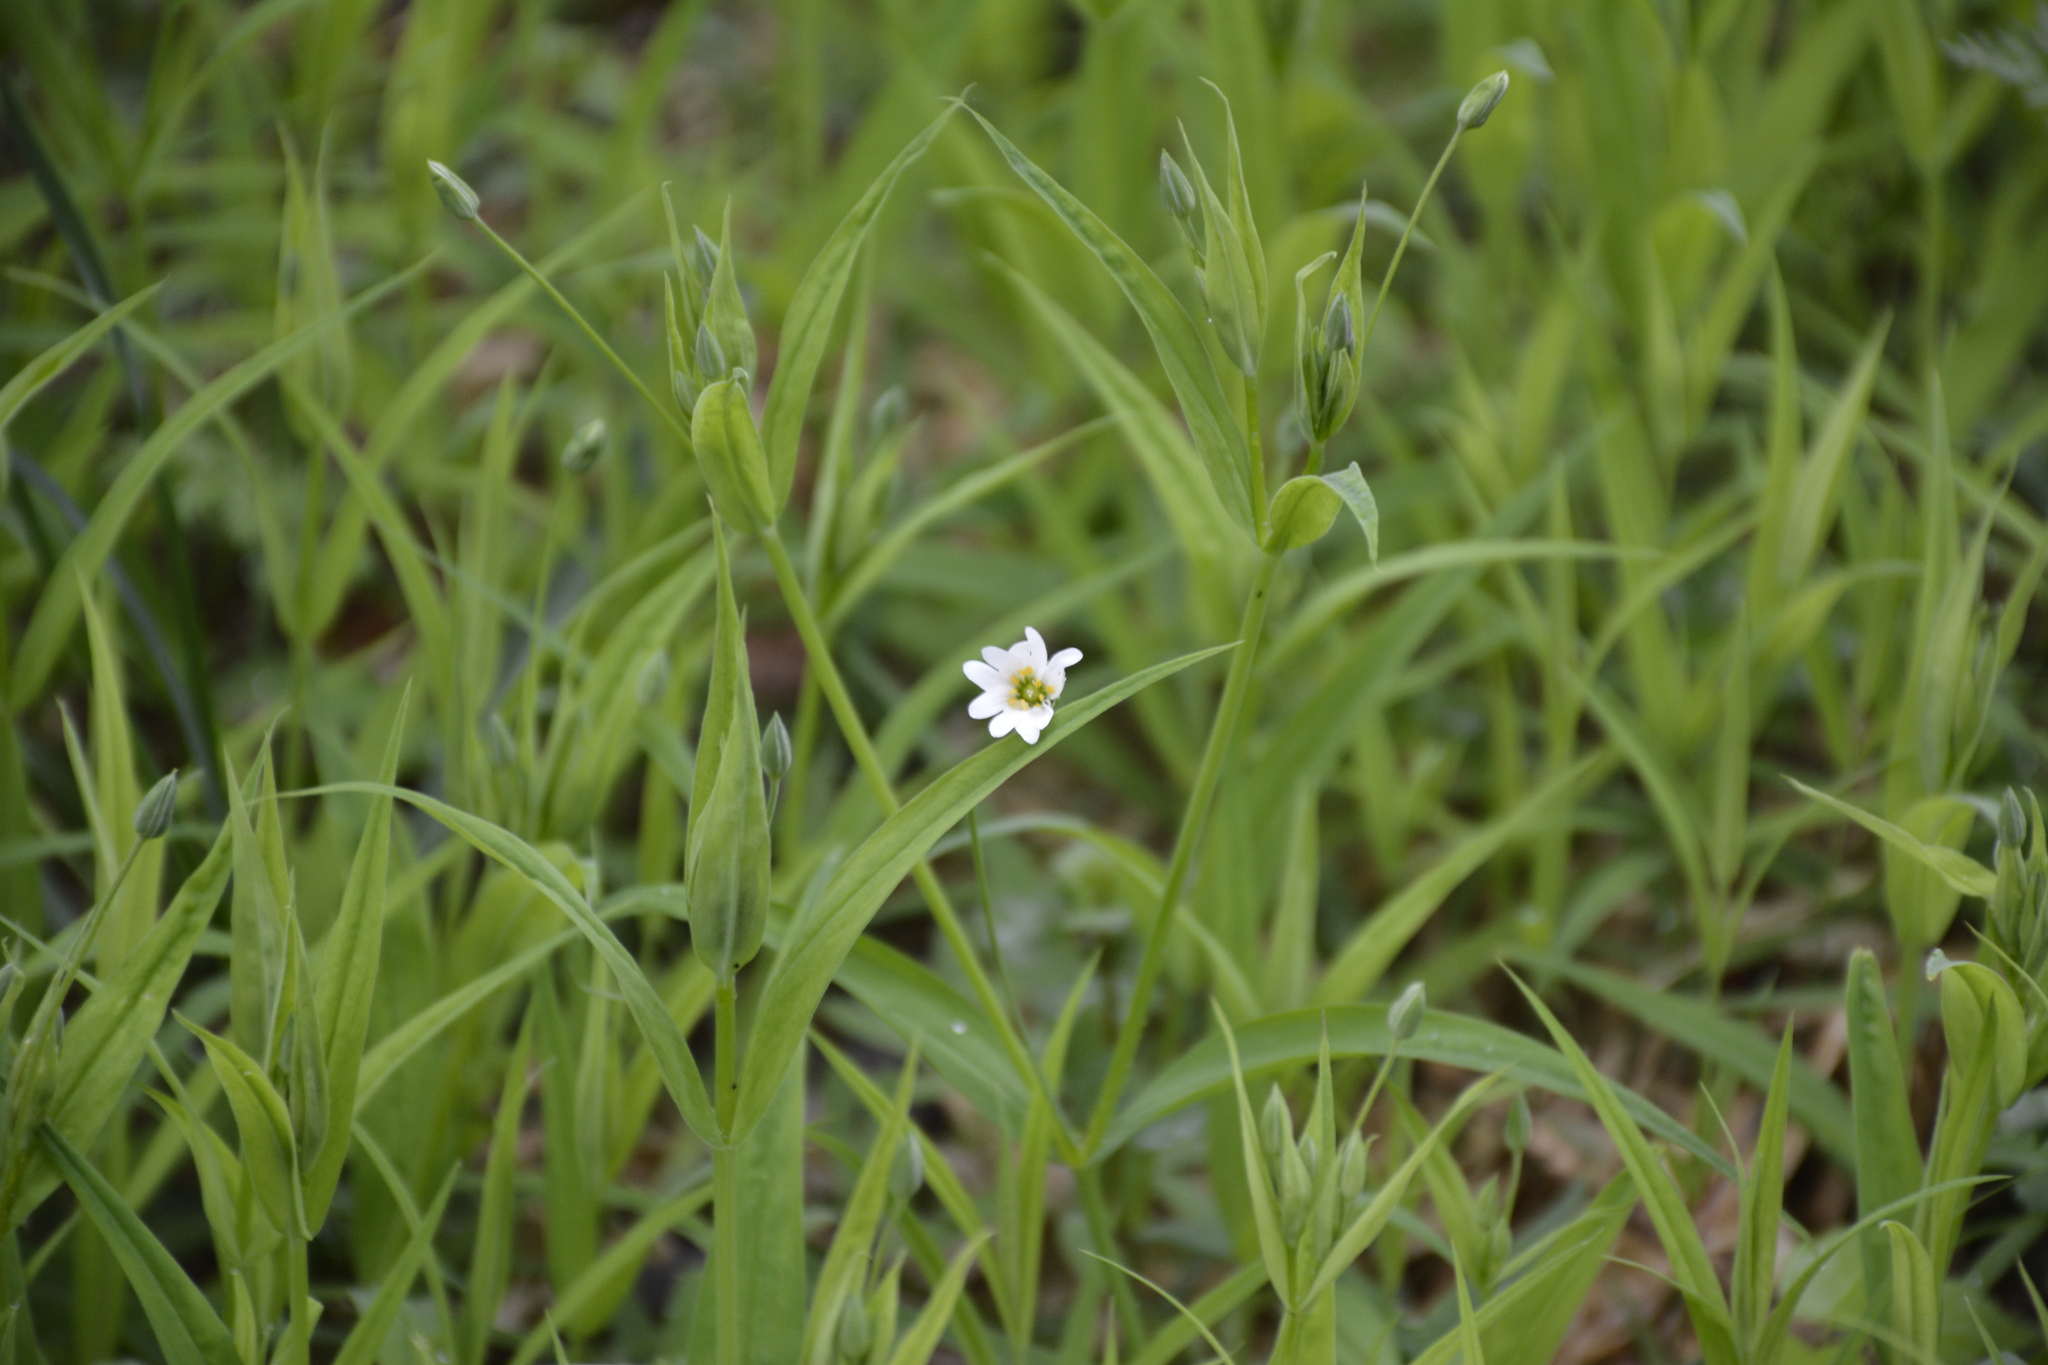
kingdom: Plantae
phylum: Tracheophyta
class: Magnoliopsida
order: Caryophyllales
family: Caryophyllaceae
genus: Rabelera
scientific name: Rabelera holostea
